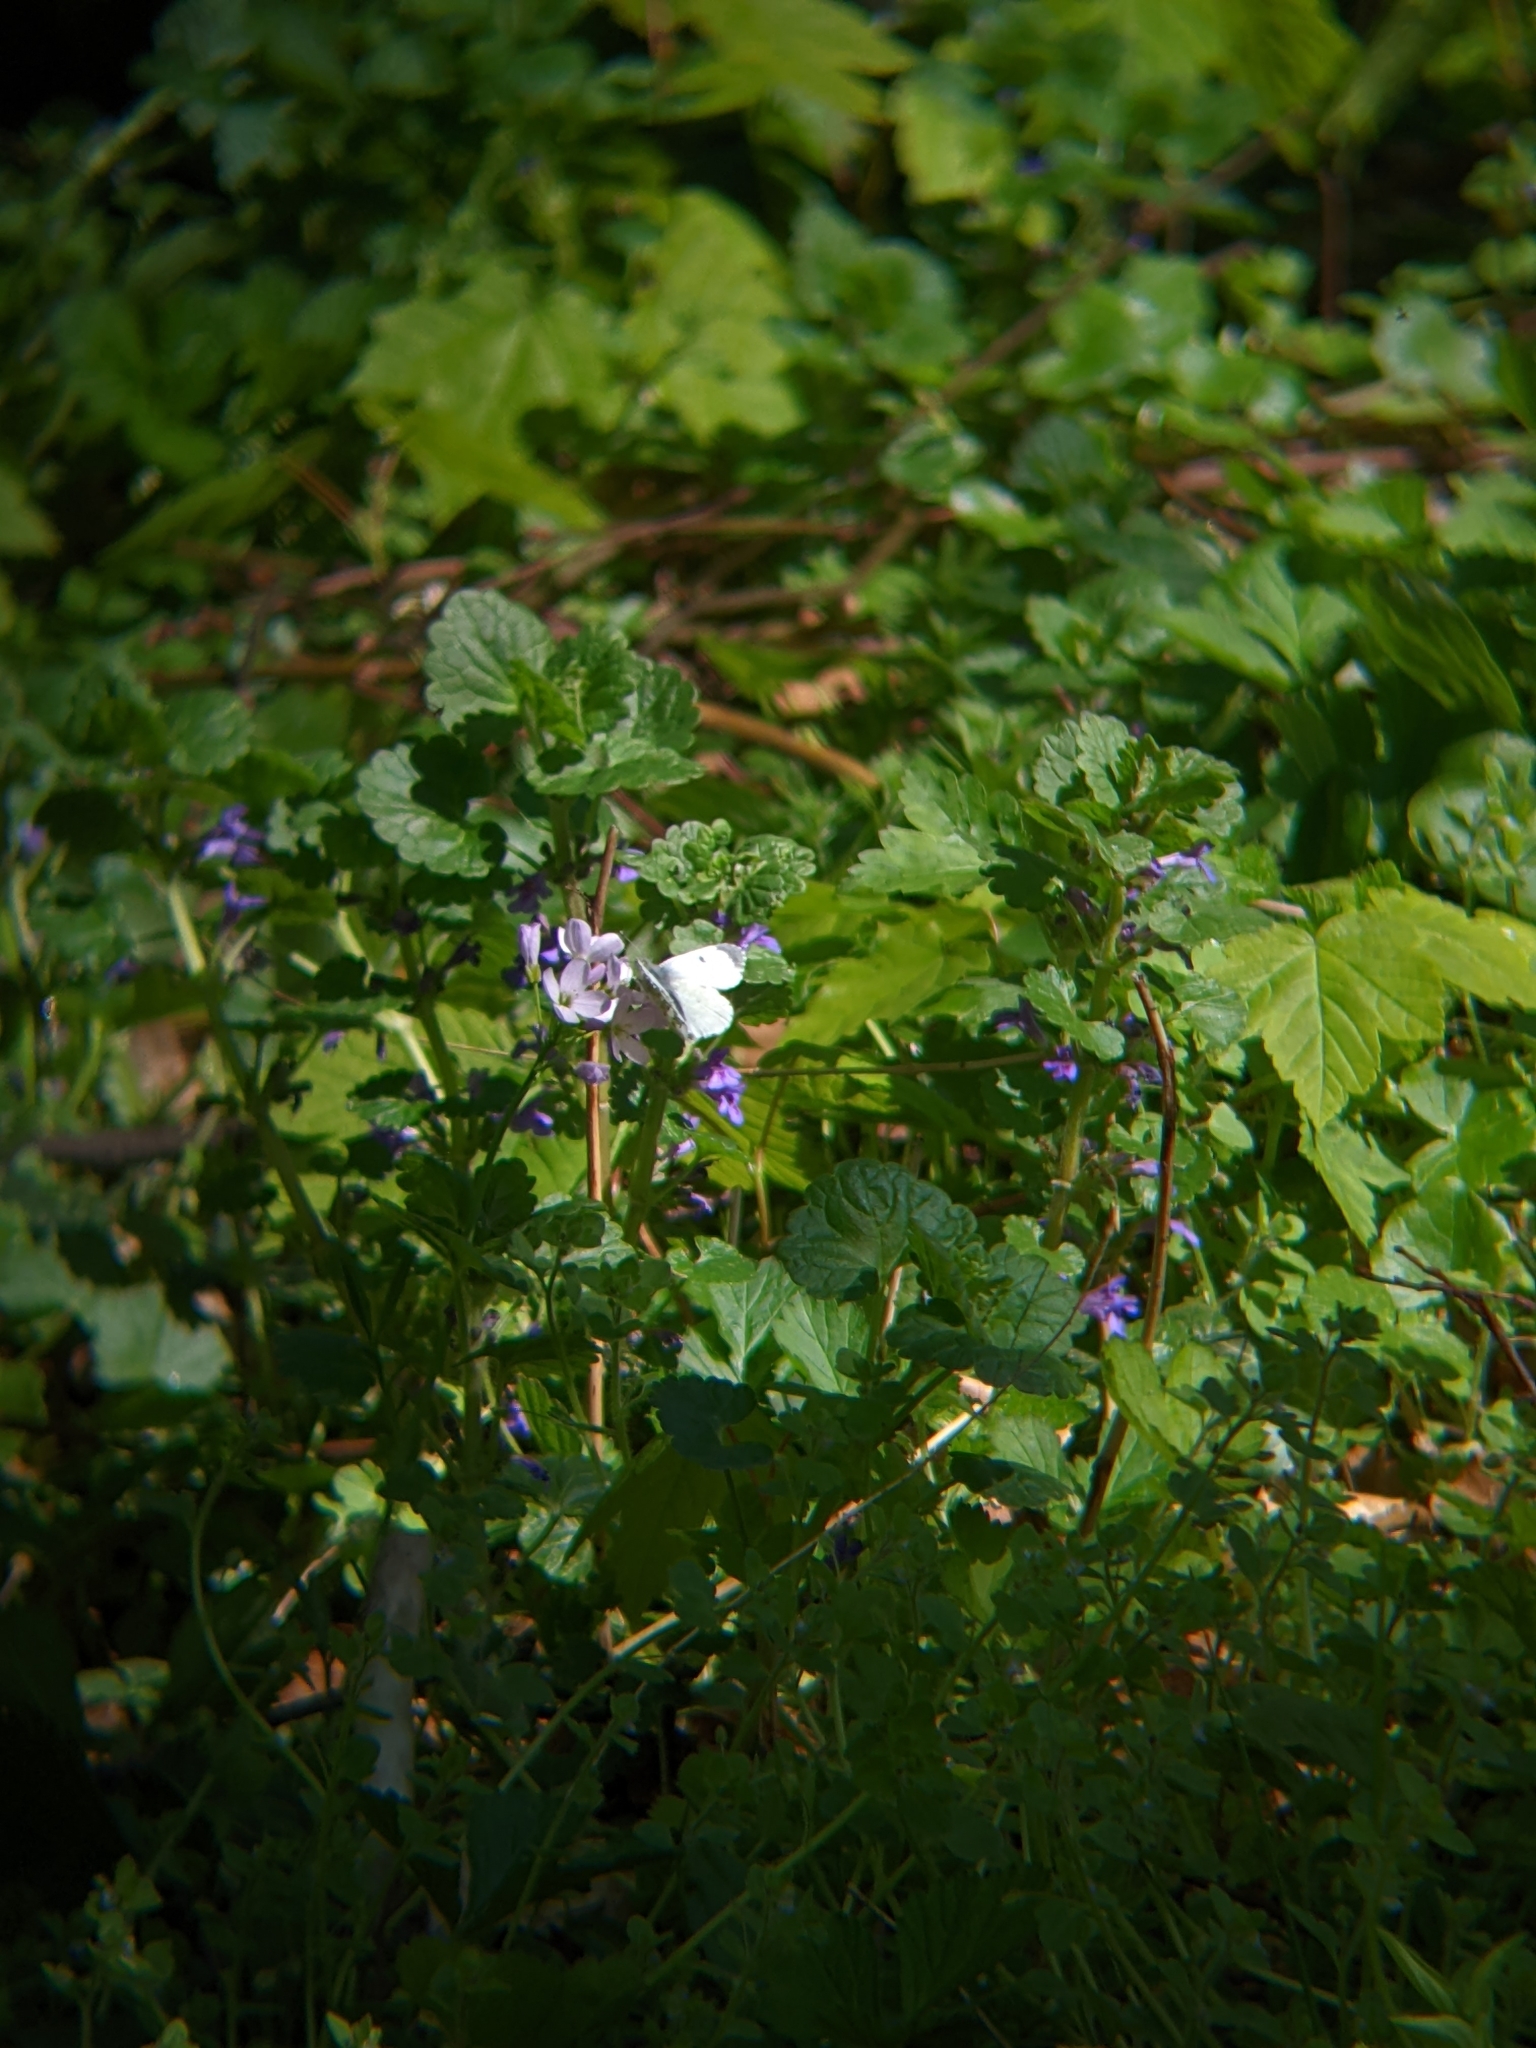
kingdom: Animalia
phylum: Arthropoda
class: Insecta
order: Lepidoptera
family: Pieridae
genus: Anthocharis
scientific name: Anthocharis cardamines
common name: Orange-tip
